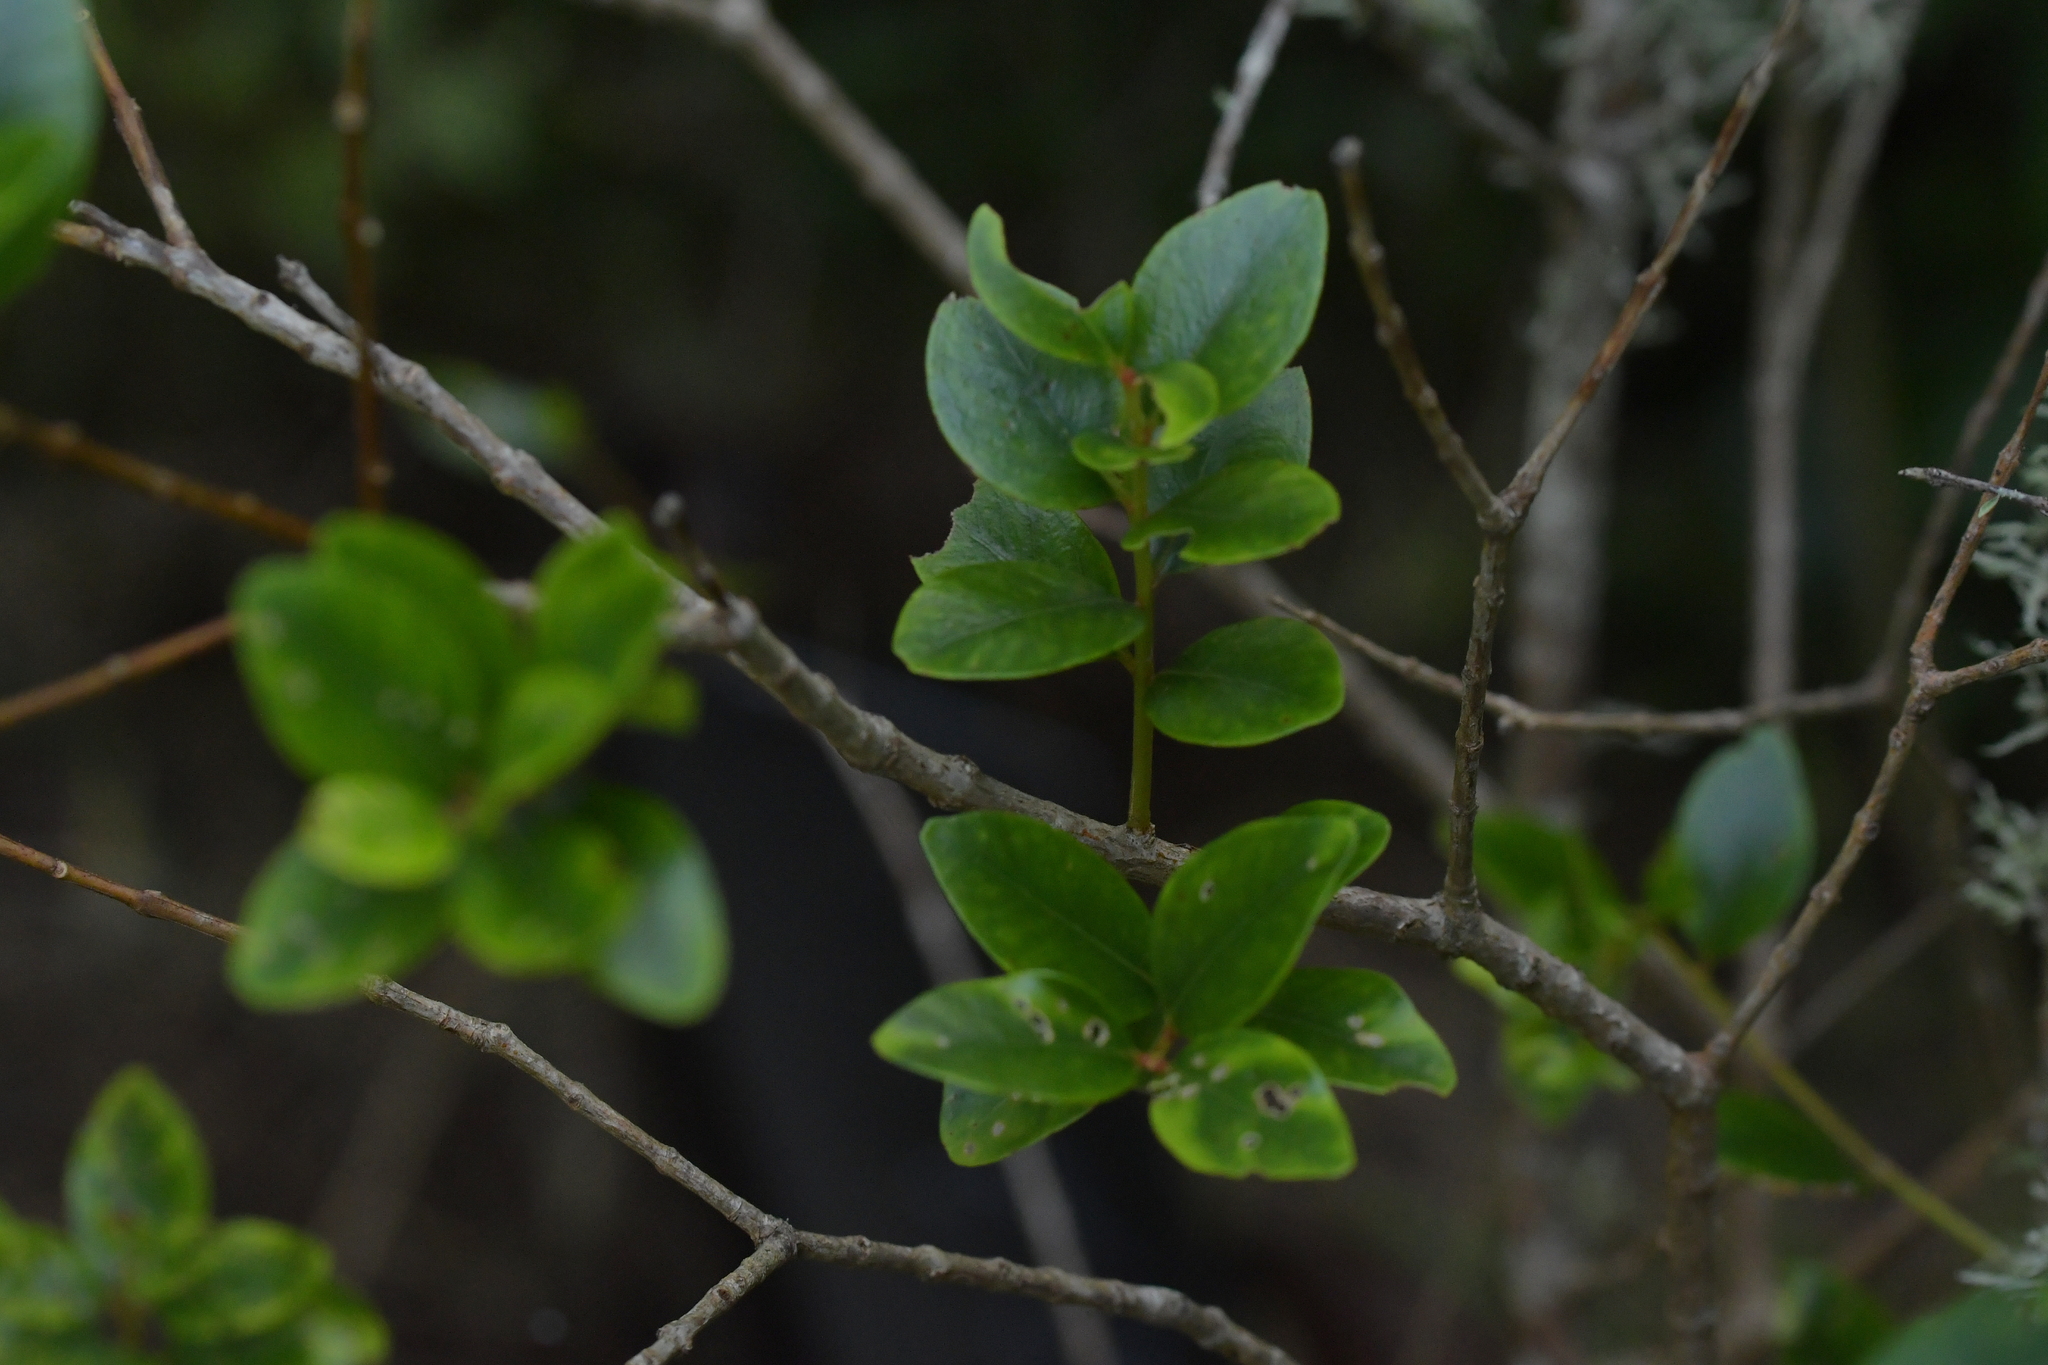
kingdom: Plantae
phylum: Tracheophyta
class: Magnoliopsida
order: Myrtales
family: Myrtaceae
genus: Metrosideros
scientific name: Metrosideros robusta
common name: Northern rata
